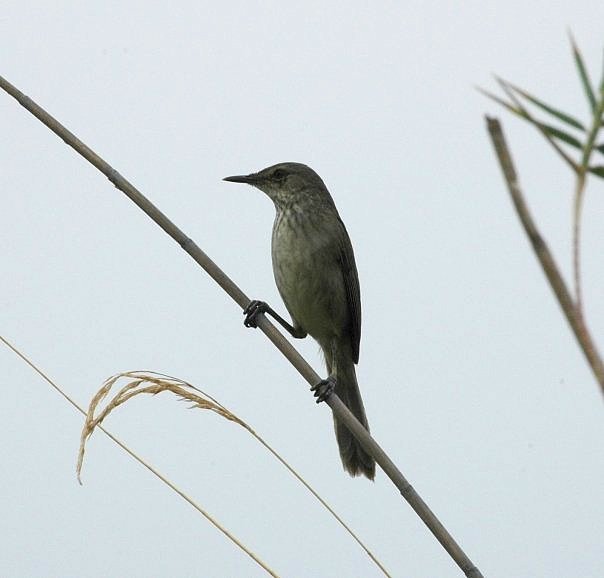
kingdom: Animalia
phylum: Chordata
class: Aves
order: Passeriformes
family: Acrocephalidae
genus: Acrocephalus
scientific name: Acrocephalus newtoni
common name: Madagascar swamp warbler
